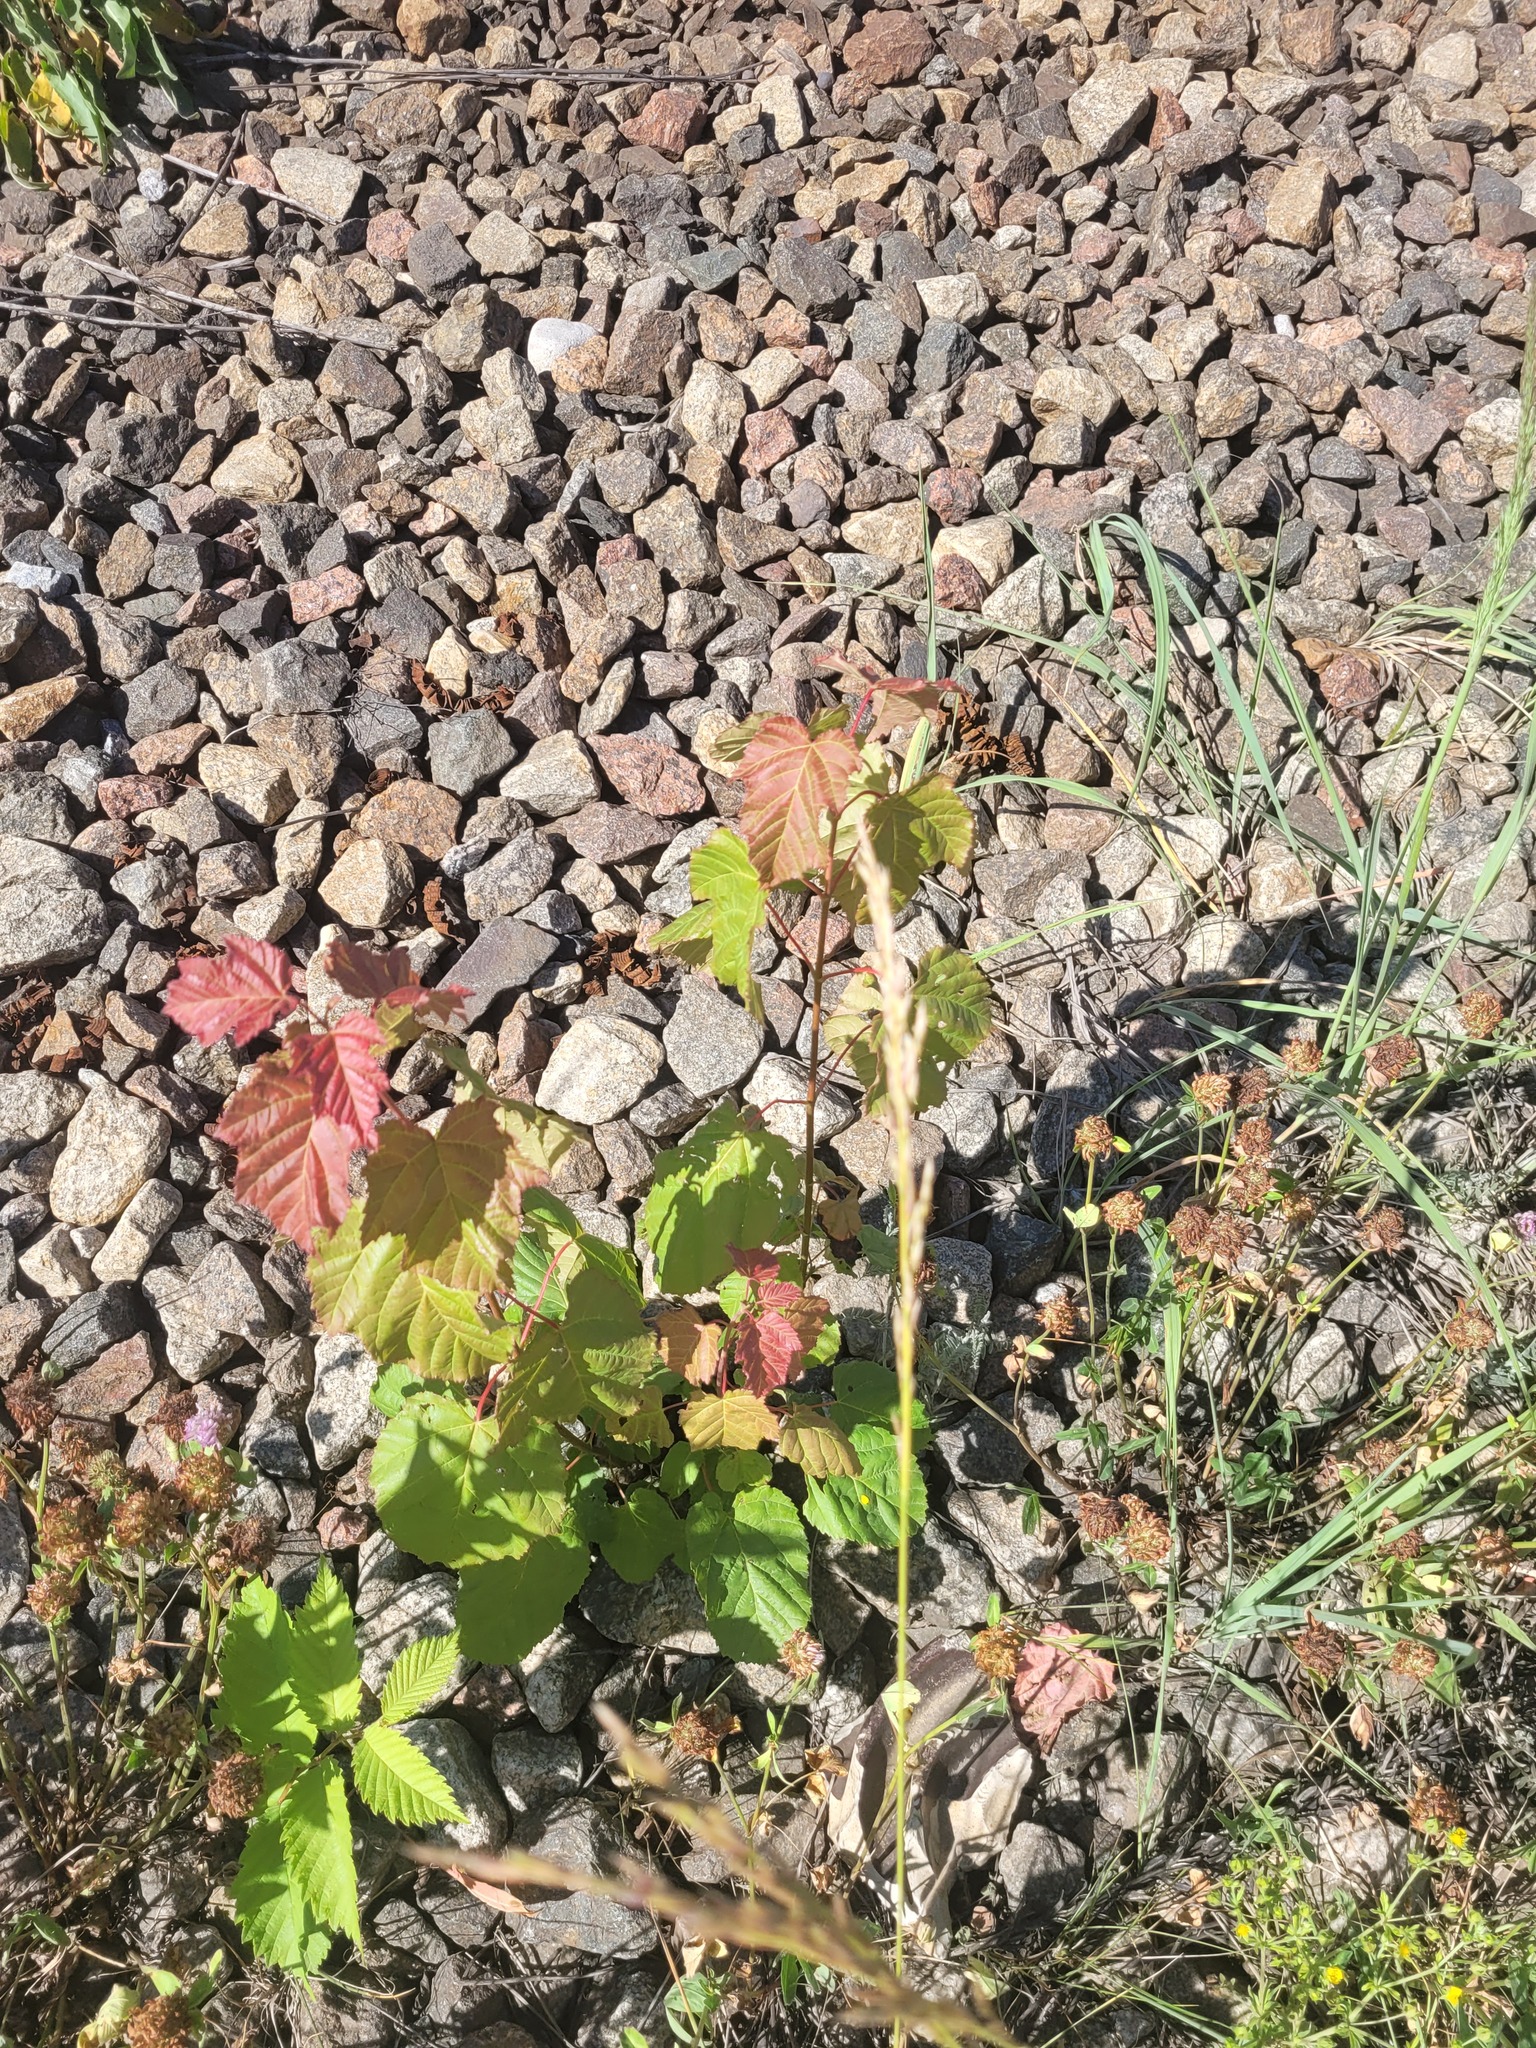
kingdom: Plantae
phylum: Tracheophyta
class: Magnoliopsida
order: Sapindales
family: Sapindaceae
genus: Acer
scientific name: Acer tataricum
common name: Tartar maple
